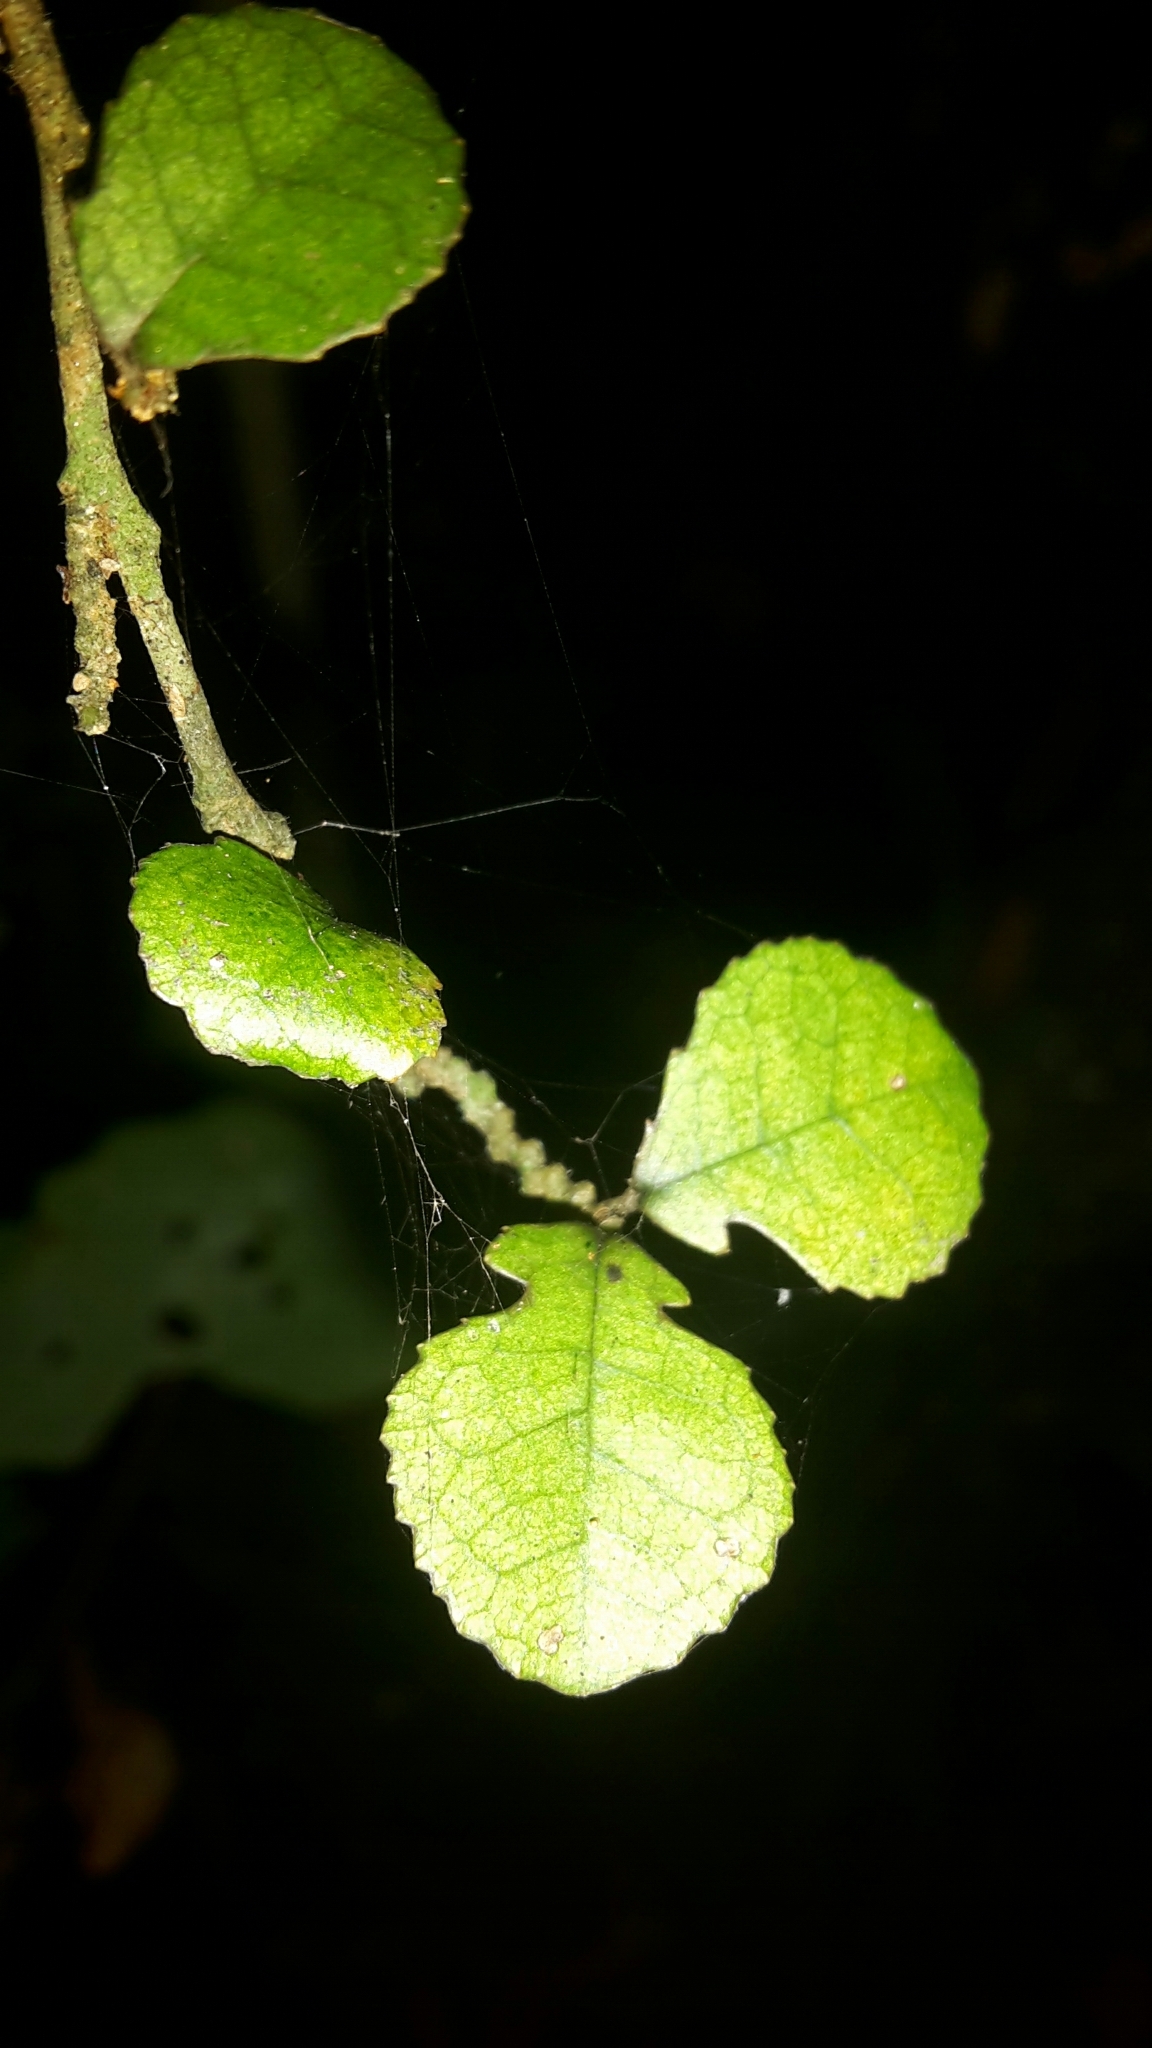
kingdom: Plantae
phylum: Tracheophyta
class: Magnoliopsida
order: Rosales
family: Moraceae
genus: Paratrophis
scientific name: Paratrophis microphylla
